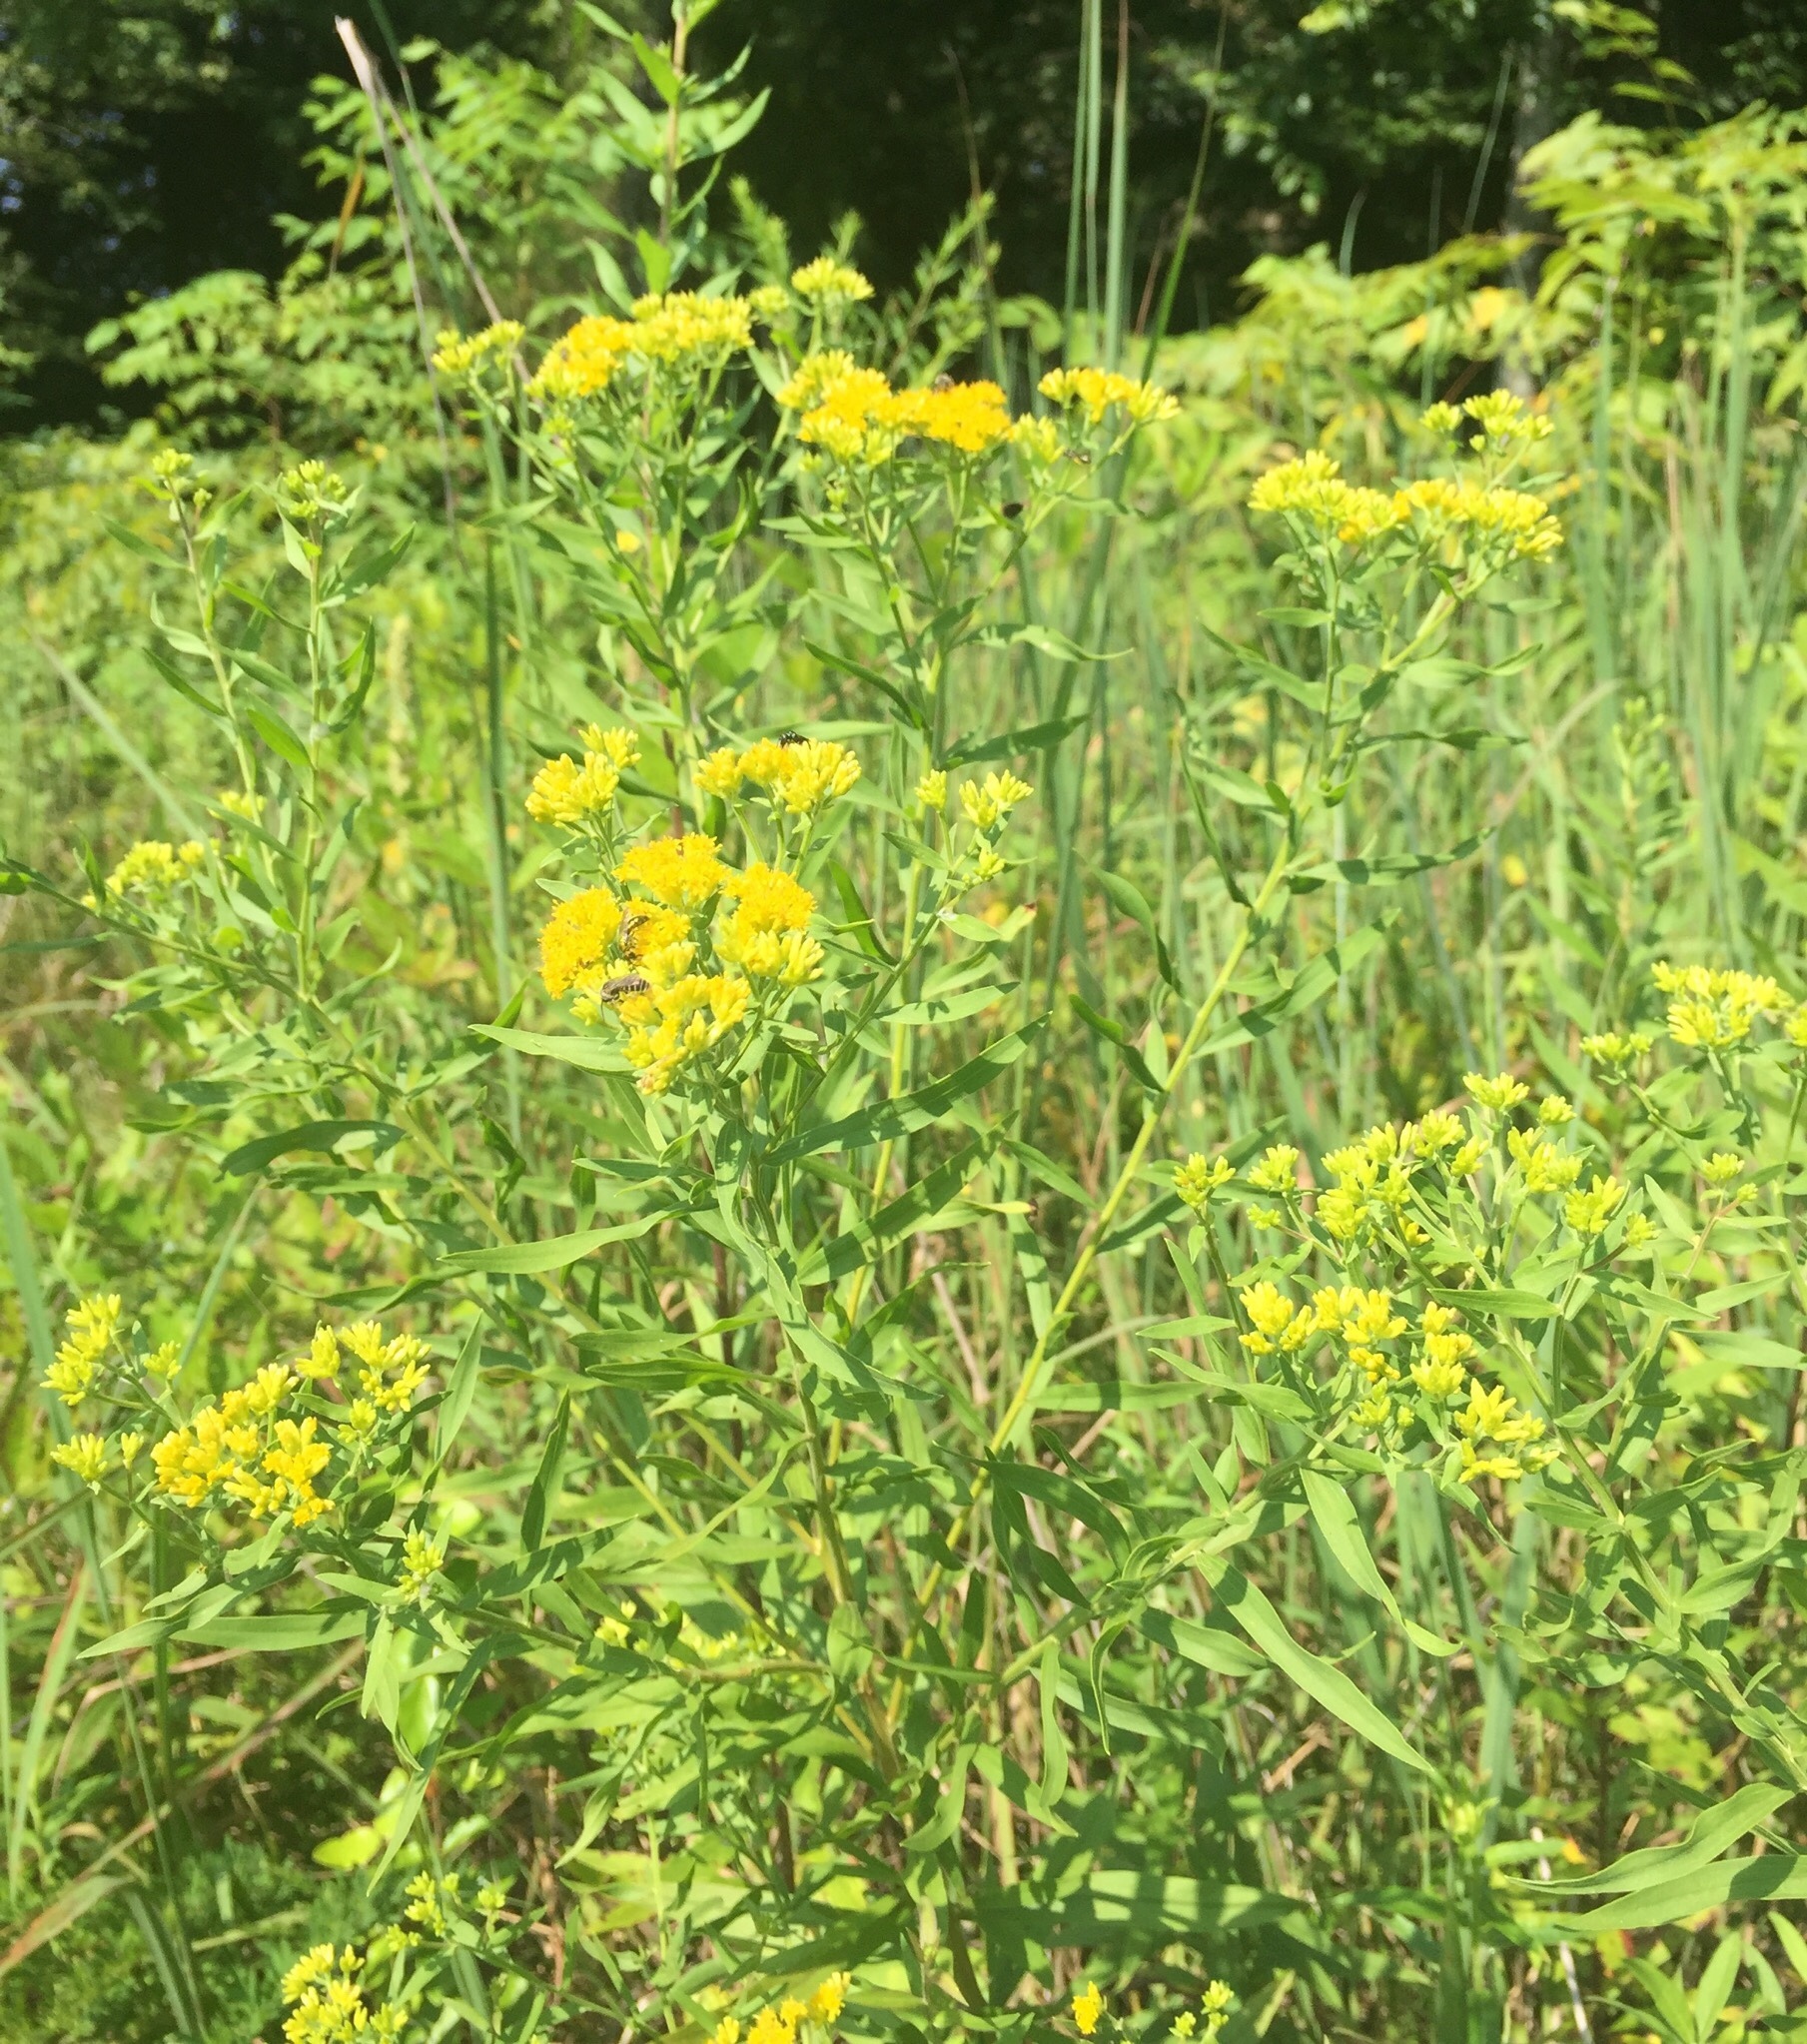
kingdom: Plantae
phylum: Tracheophyta
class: Magnoliopsida
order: Asterales
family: Asteraceae
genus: Euthamia
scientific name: Euthamia graminifolia
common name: Common goldentop
